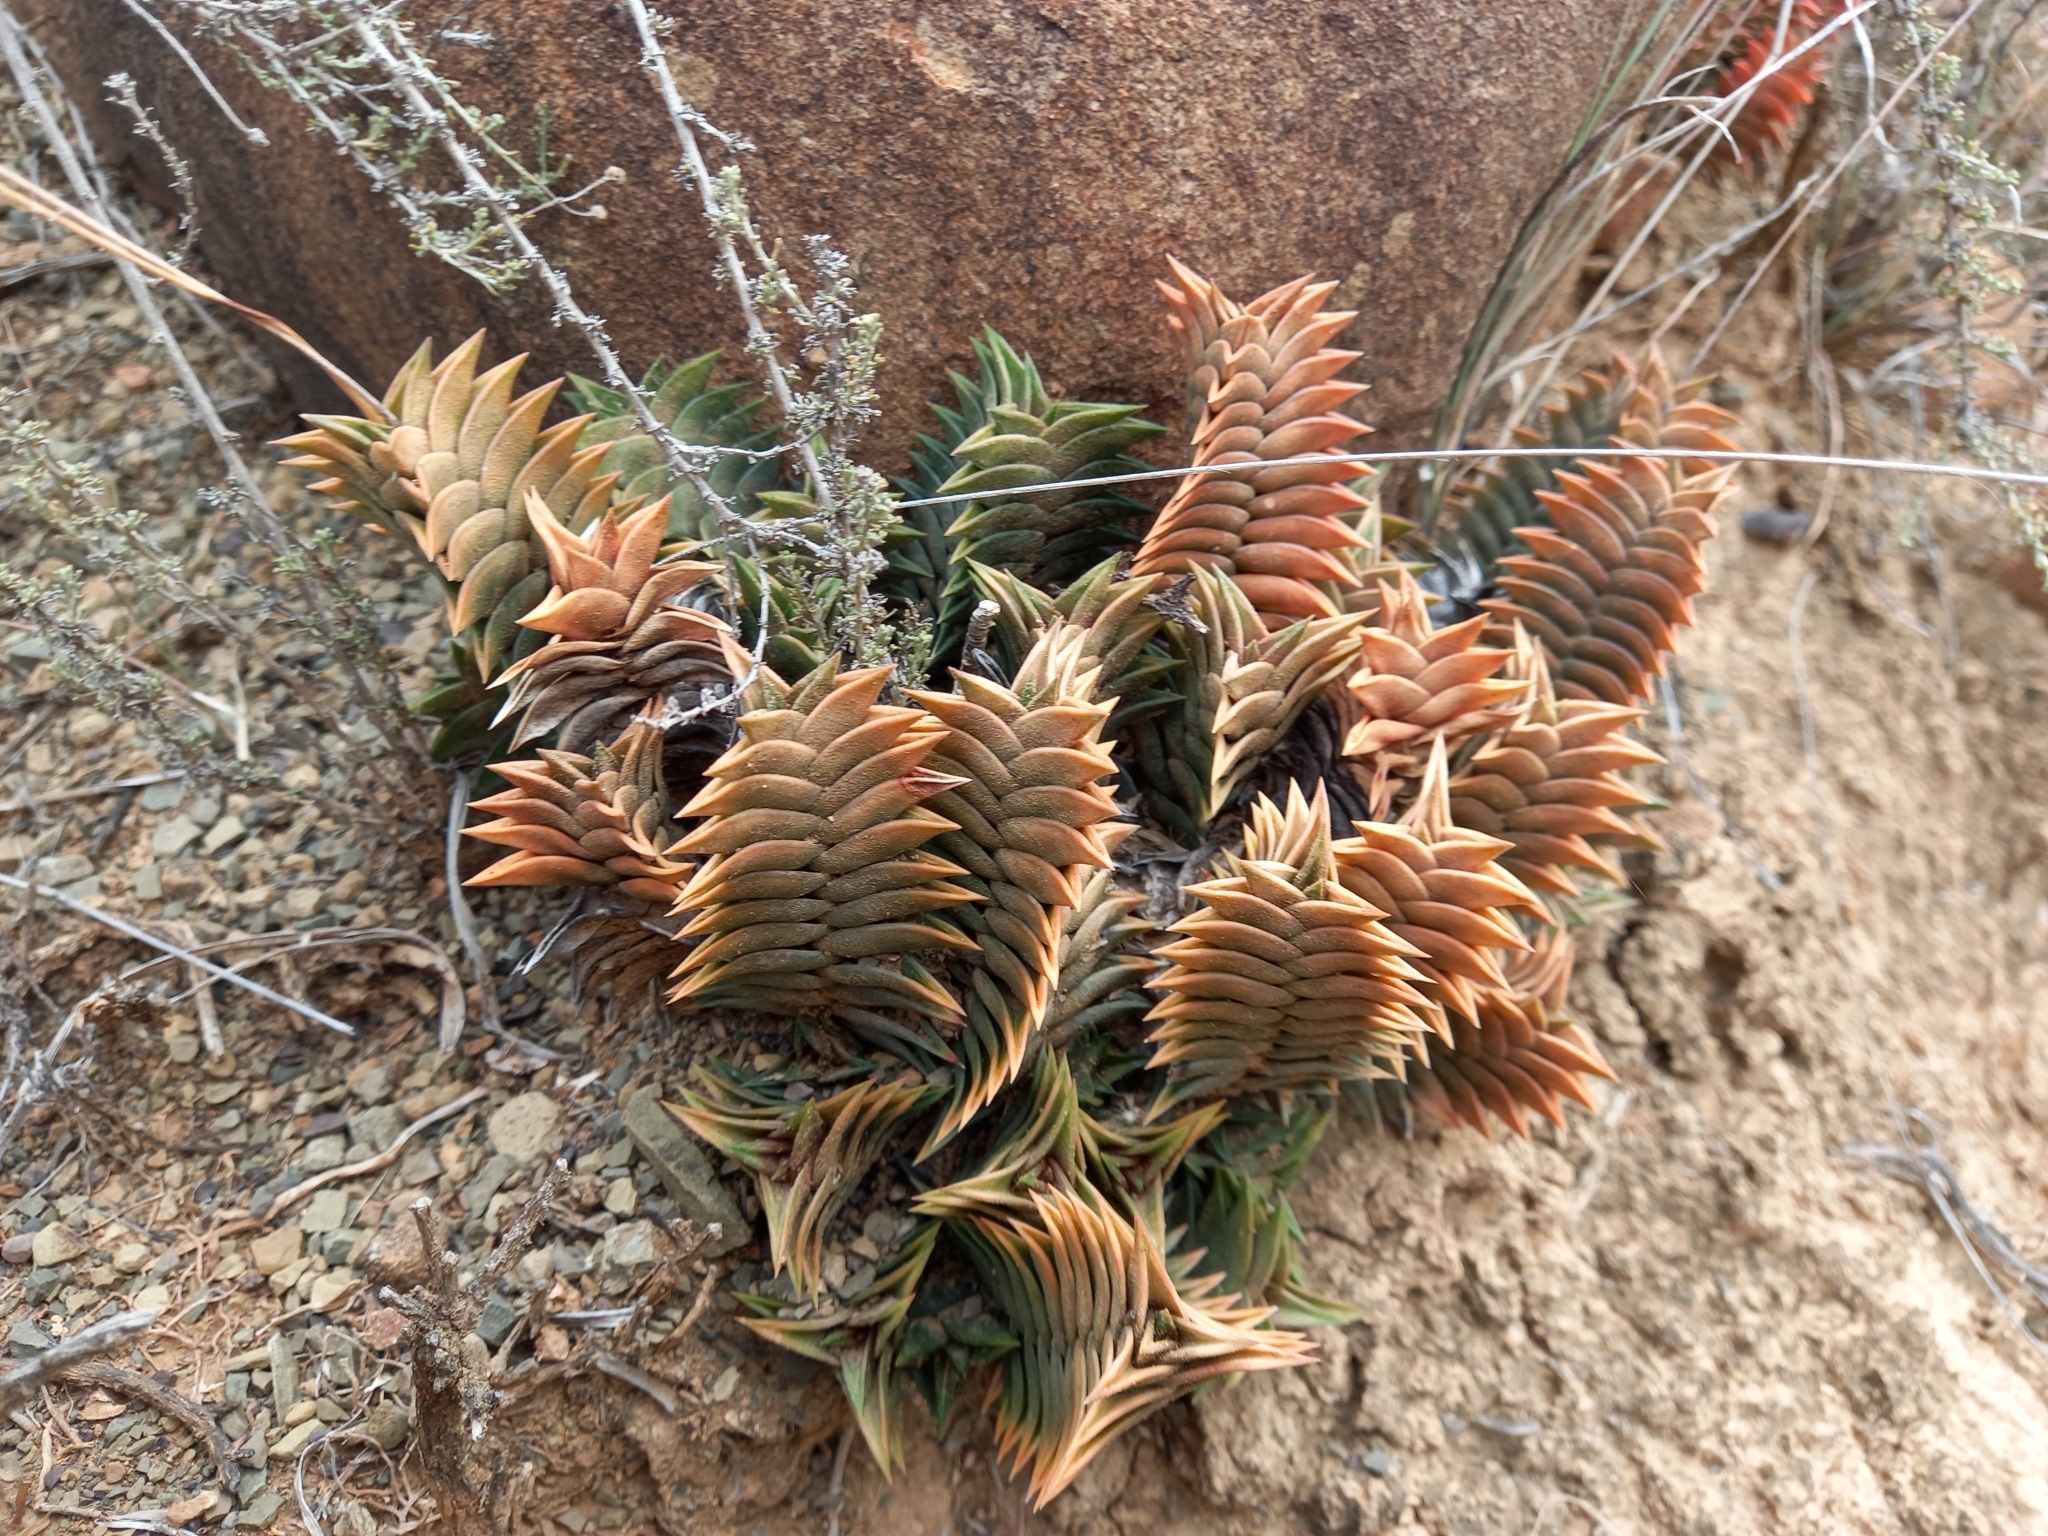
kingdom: Plantae
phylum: Tracheophyta
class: Liliopsida
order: Asparagales
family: Asphodelaceae
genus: Haworthiopsis
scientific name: Haworthiopsis viscosa
